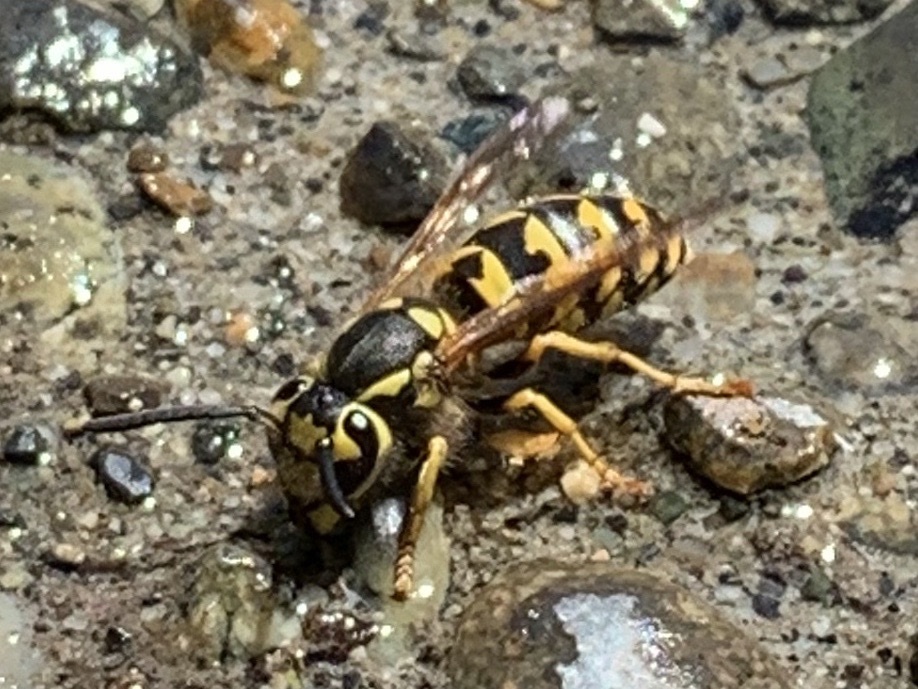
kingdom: Animalia
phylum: Arthropoda
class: Insecta
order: Hymenoptera
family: Vespidae
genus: Vespula
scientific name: Vespula pensylvanica
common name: Western yellowjacket
